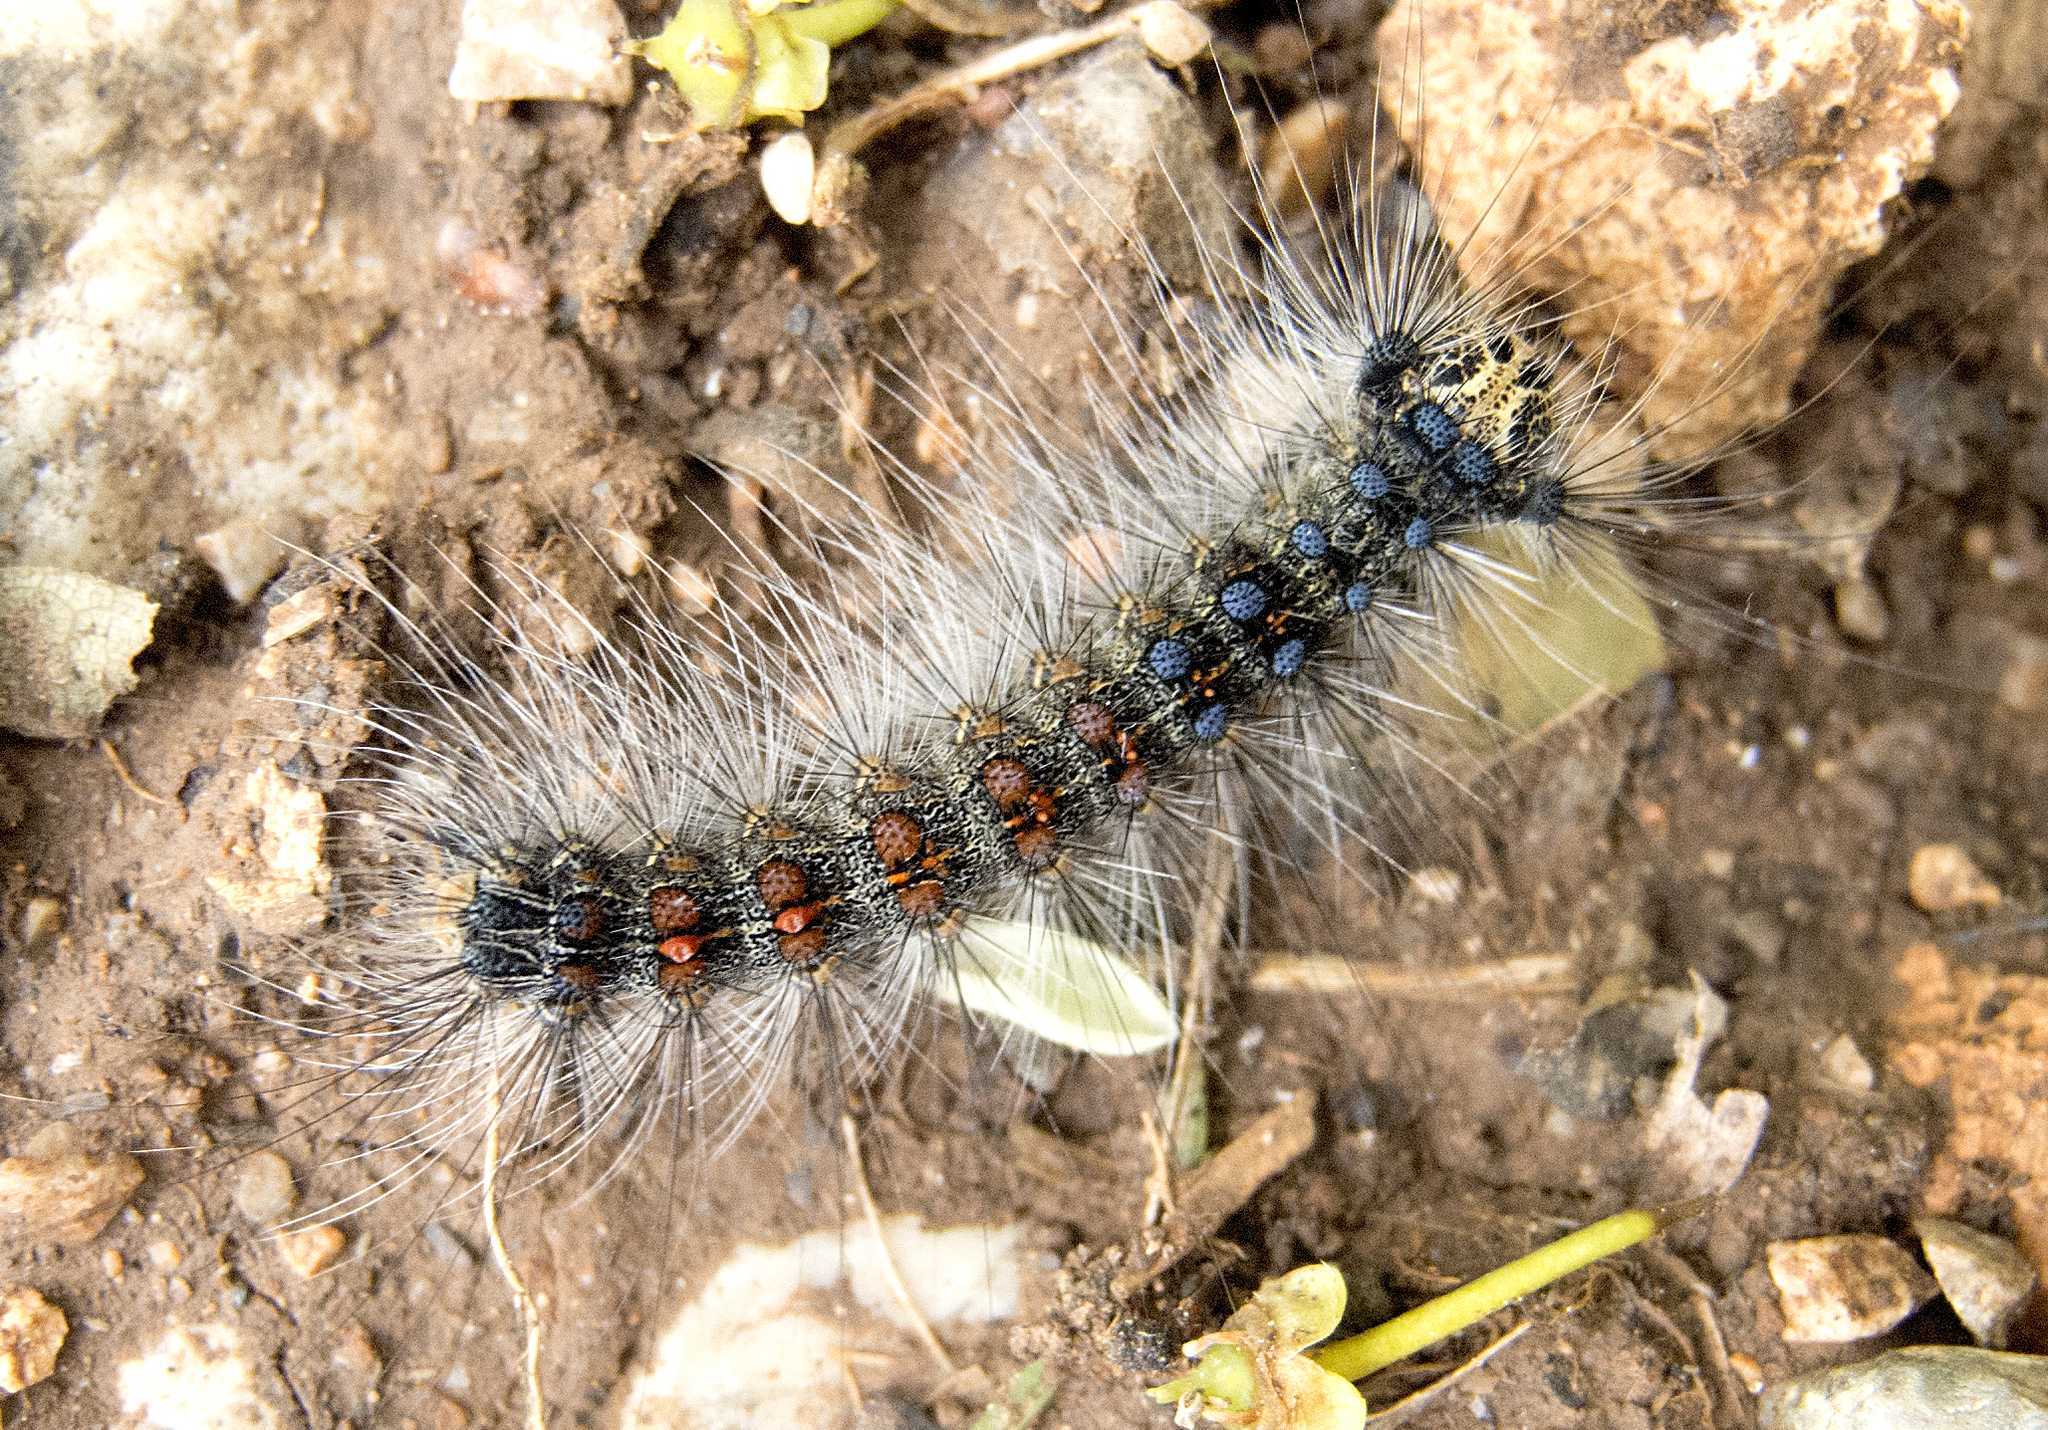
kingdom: Animalia
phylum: Arthropoda
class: Insecta
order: Lepidoptera
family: Erebidae
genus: Lymantria
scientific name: Lymantria dispar
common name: Gypsy moth
